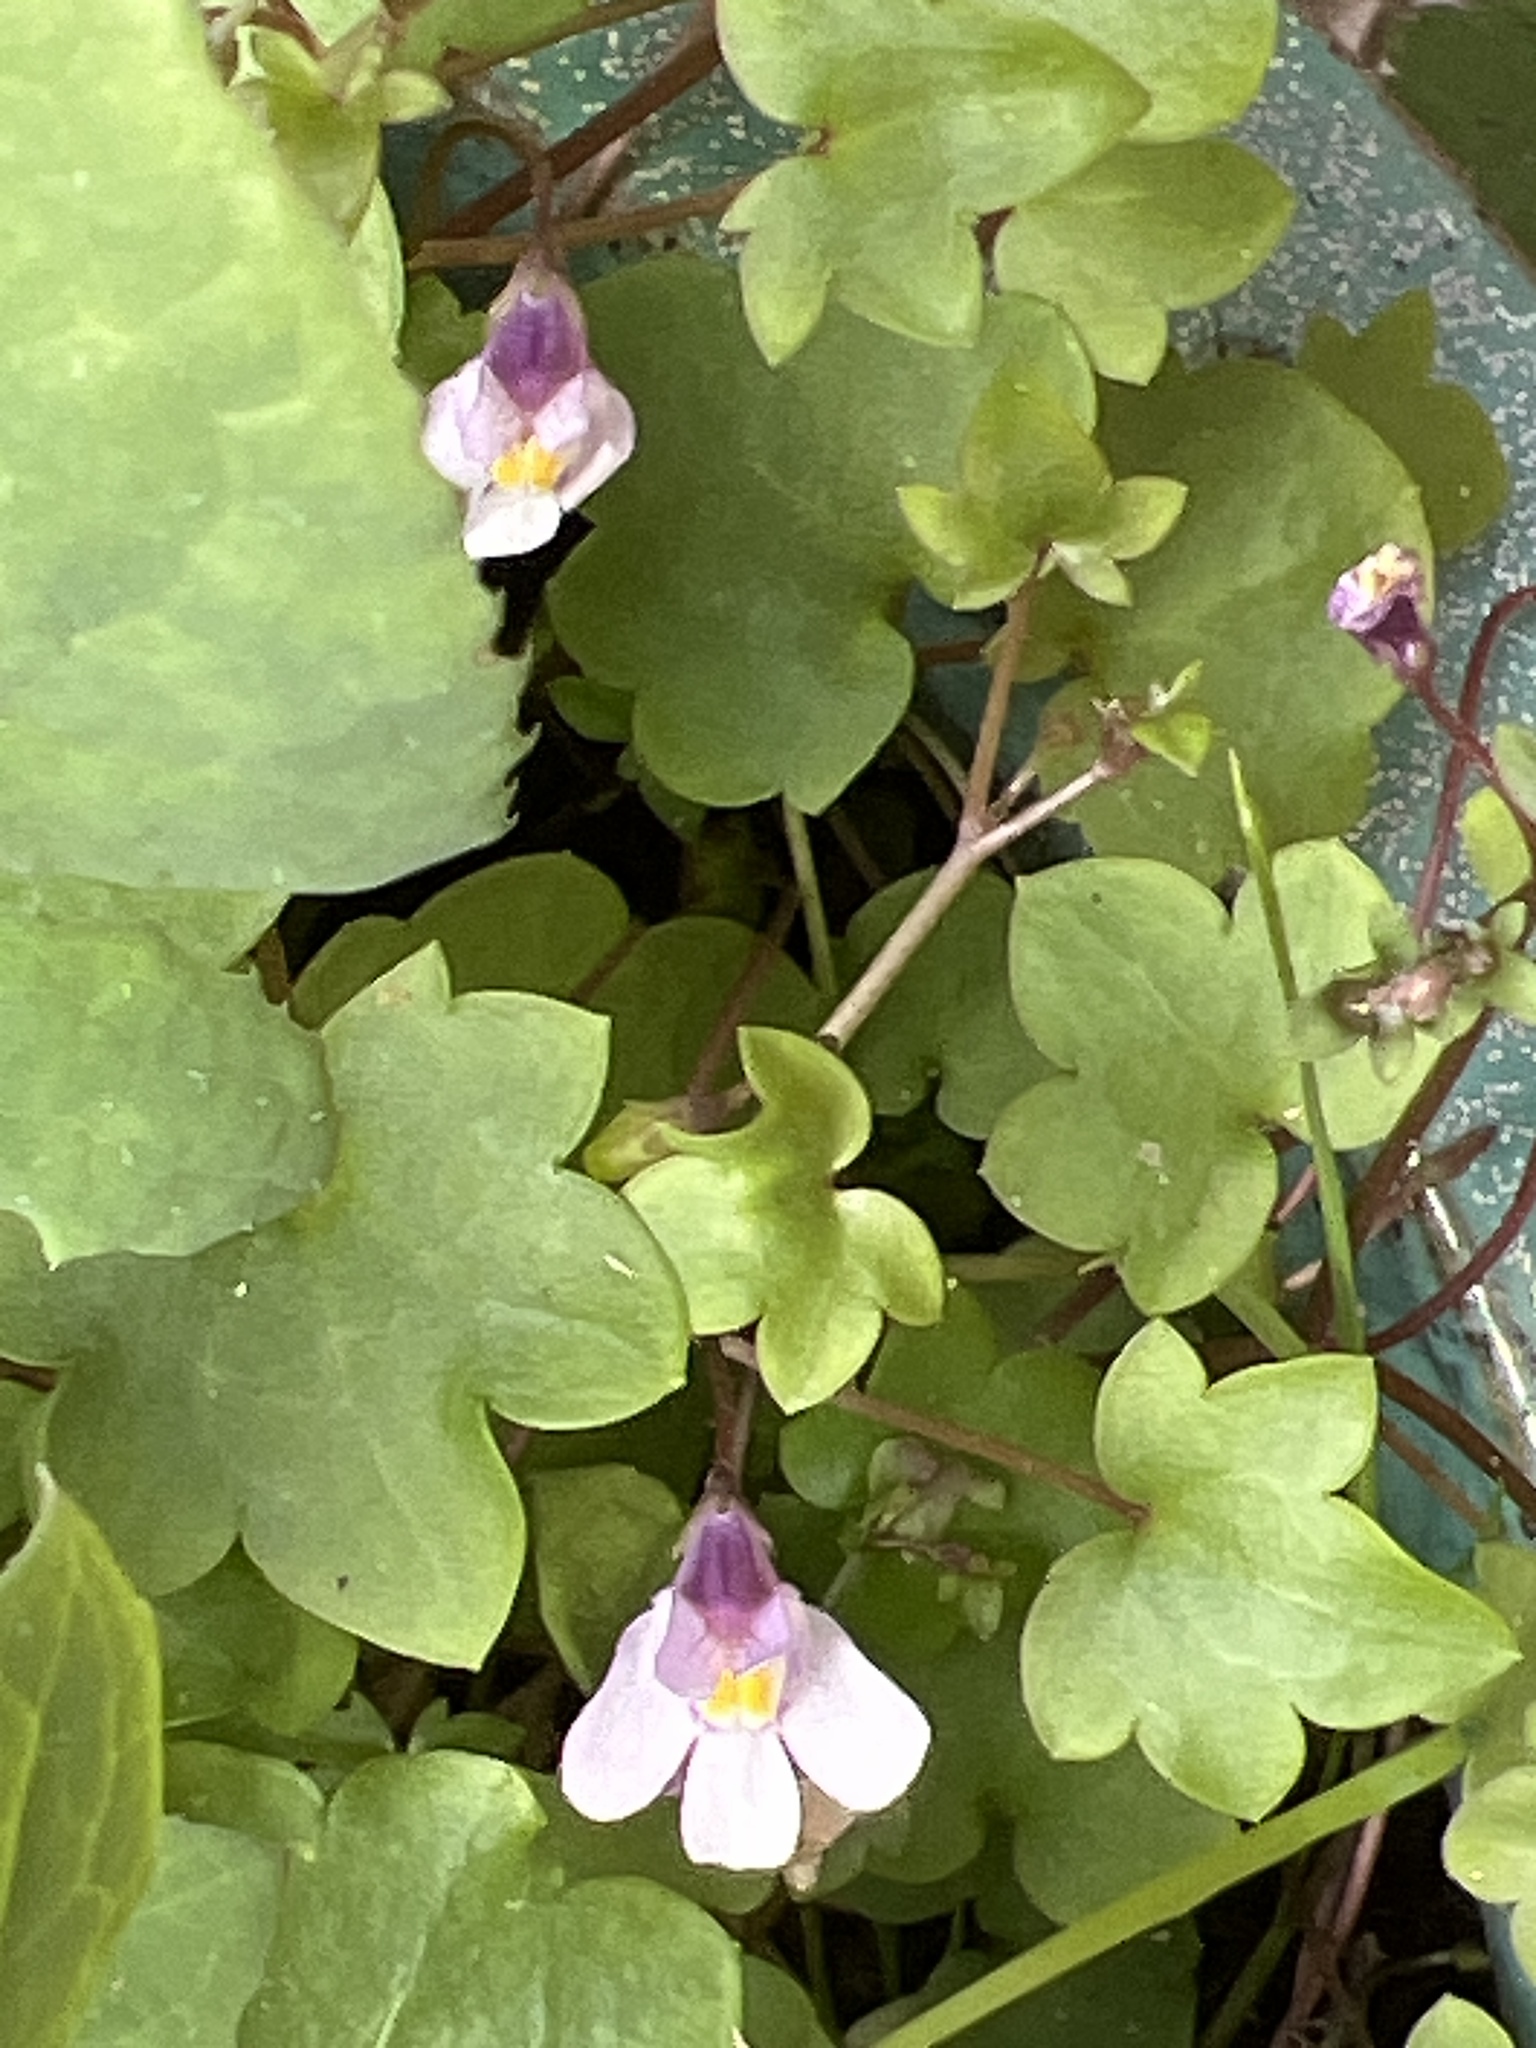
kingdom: Plantae
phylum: Tracheophyta
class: Magnoliopsida
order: Lamiales
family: Plantaginaceae
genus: Cymbalaria
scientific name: Cymbalaria muralis
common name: Ivy-leaved toadflax
